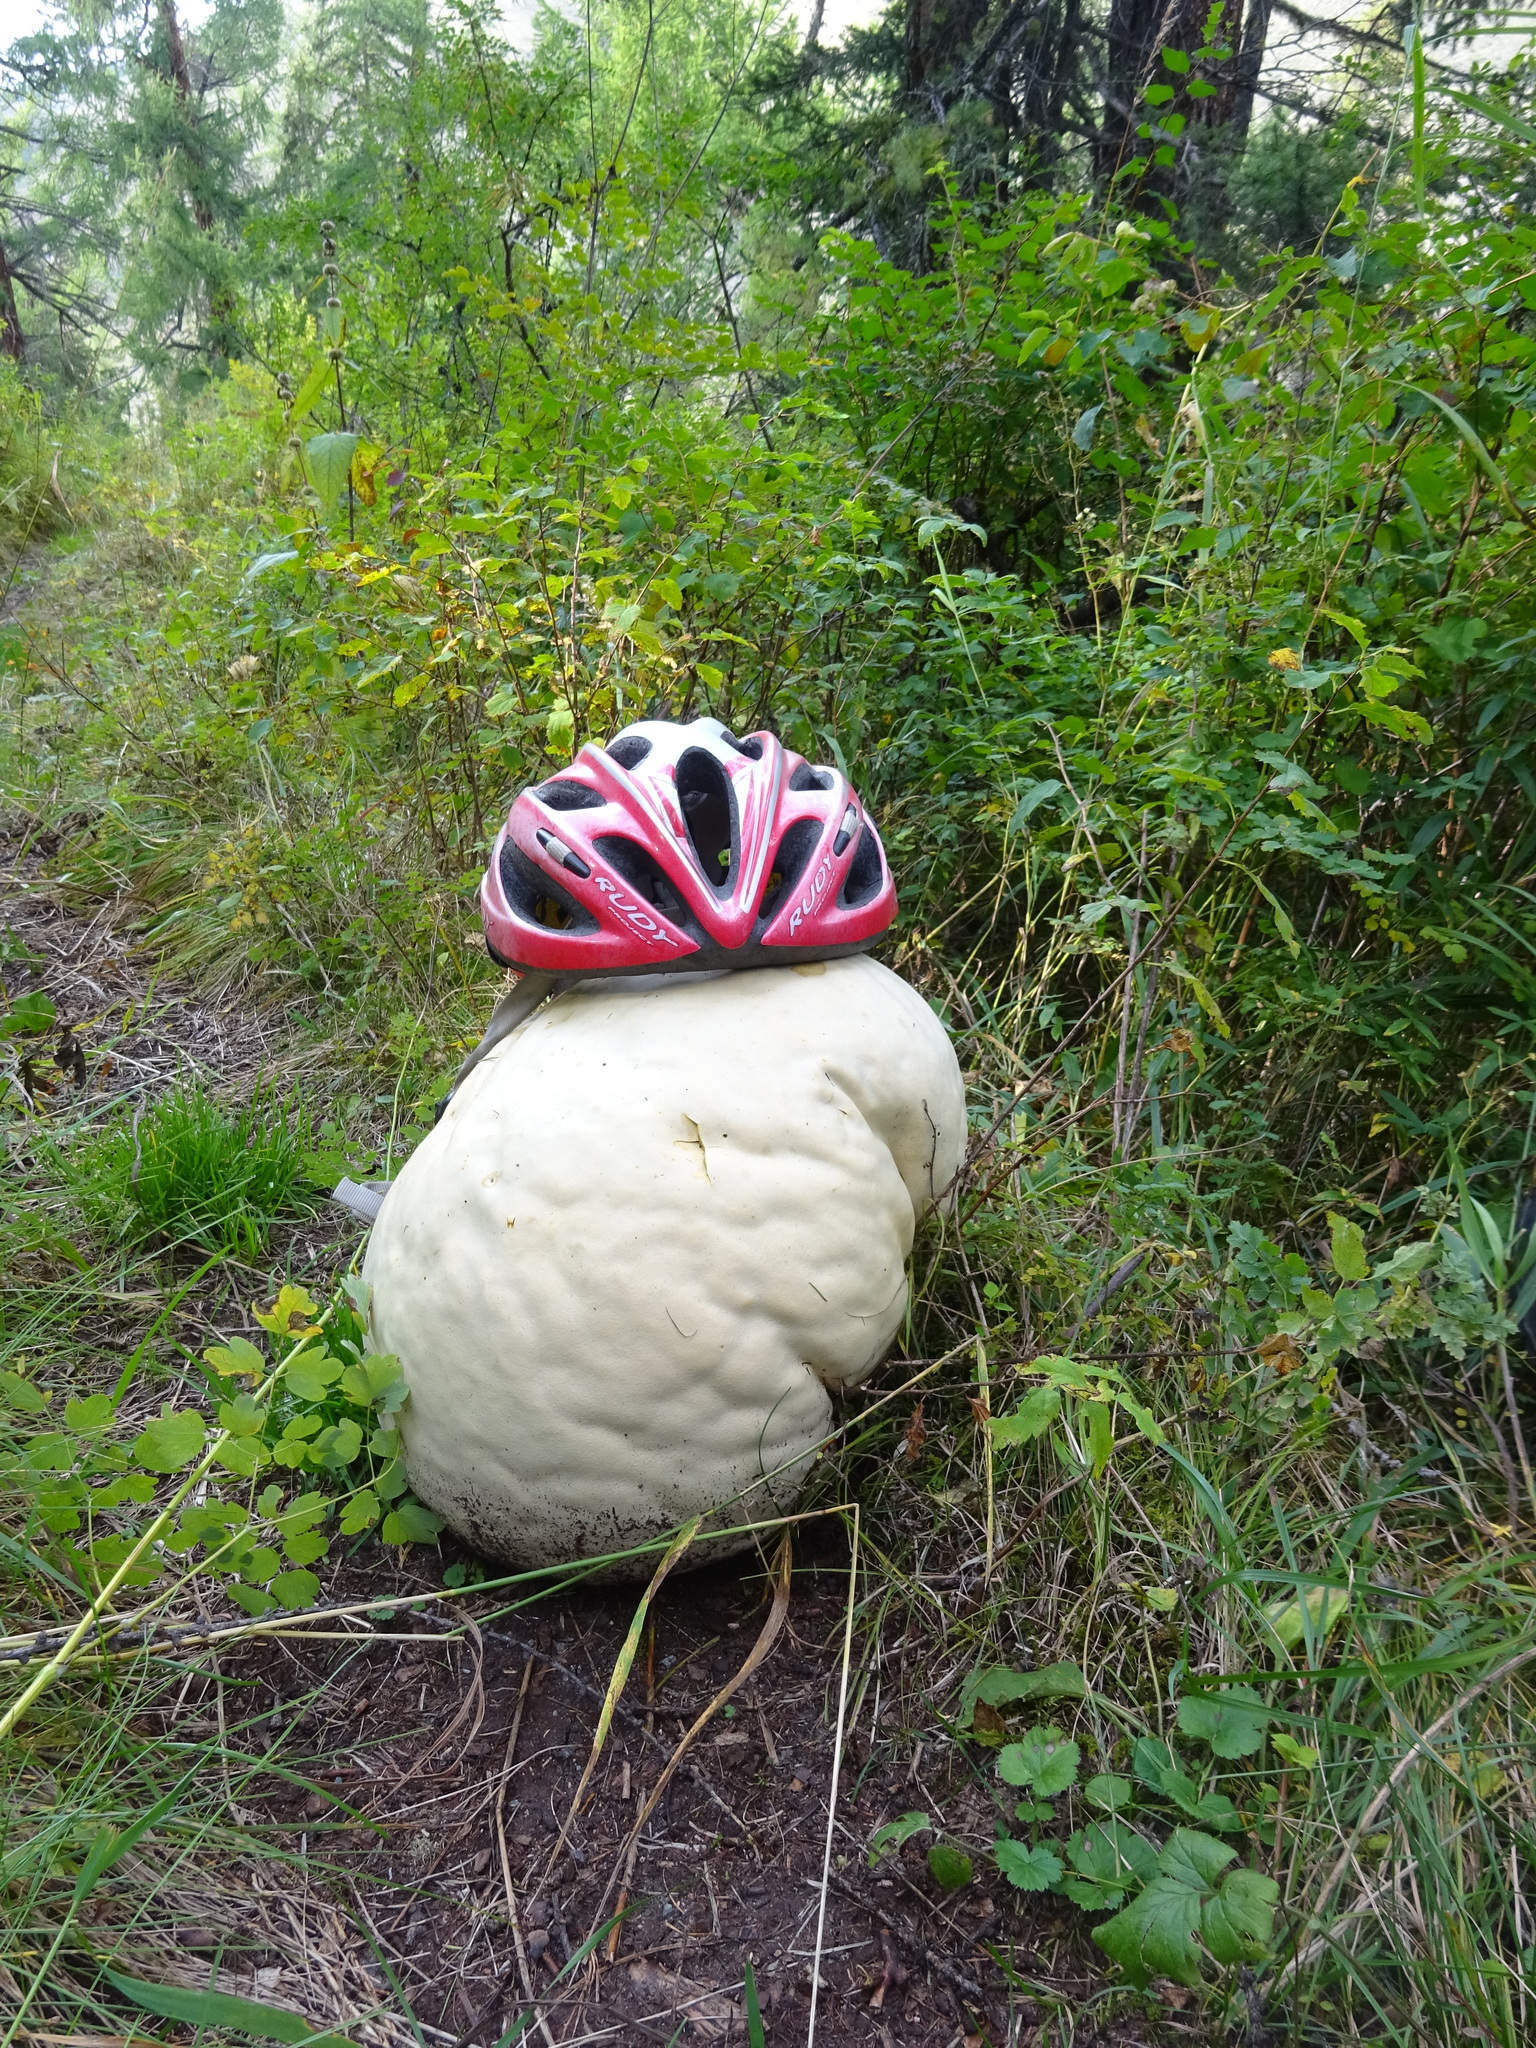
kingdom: Fungi
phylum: Basidiomycota
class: Agaricomycetes
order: Agaricales
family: Lycoperdaceae
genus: Calvatia
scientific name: Calvatia gigantea
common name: Giant puffball
